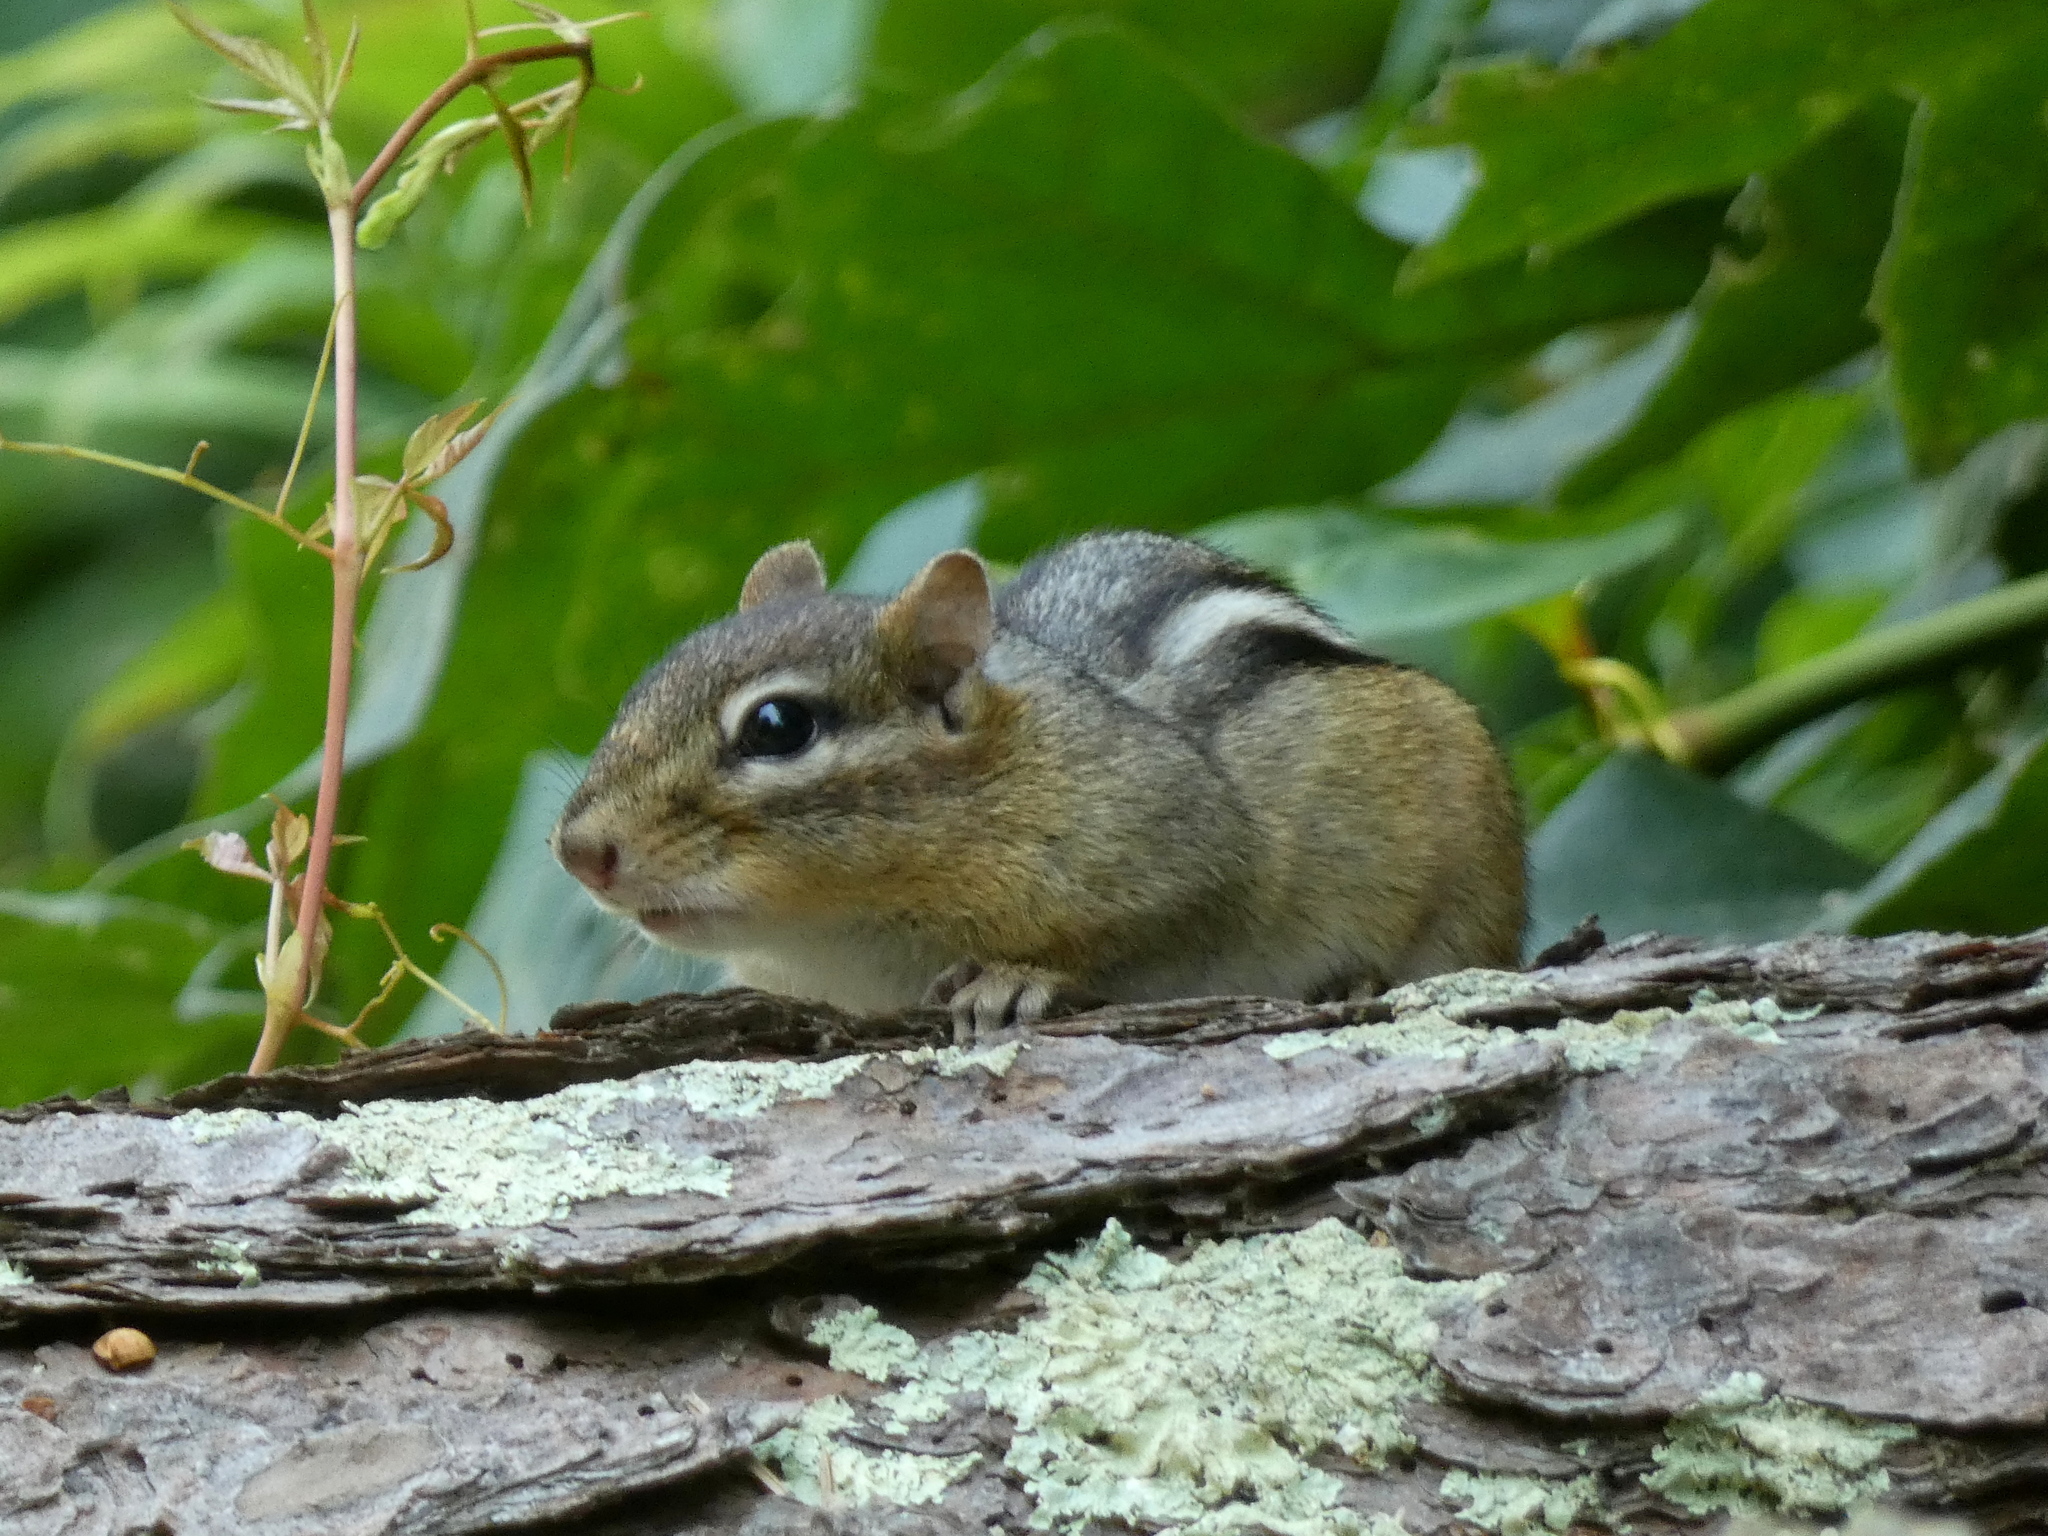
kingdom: Animalia
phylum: Chordata
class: Mammalia
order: Rodentia
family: Sciuridae
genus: Tamias
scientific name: Tamias striatus
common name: Eastern chipmunk
